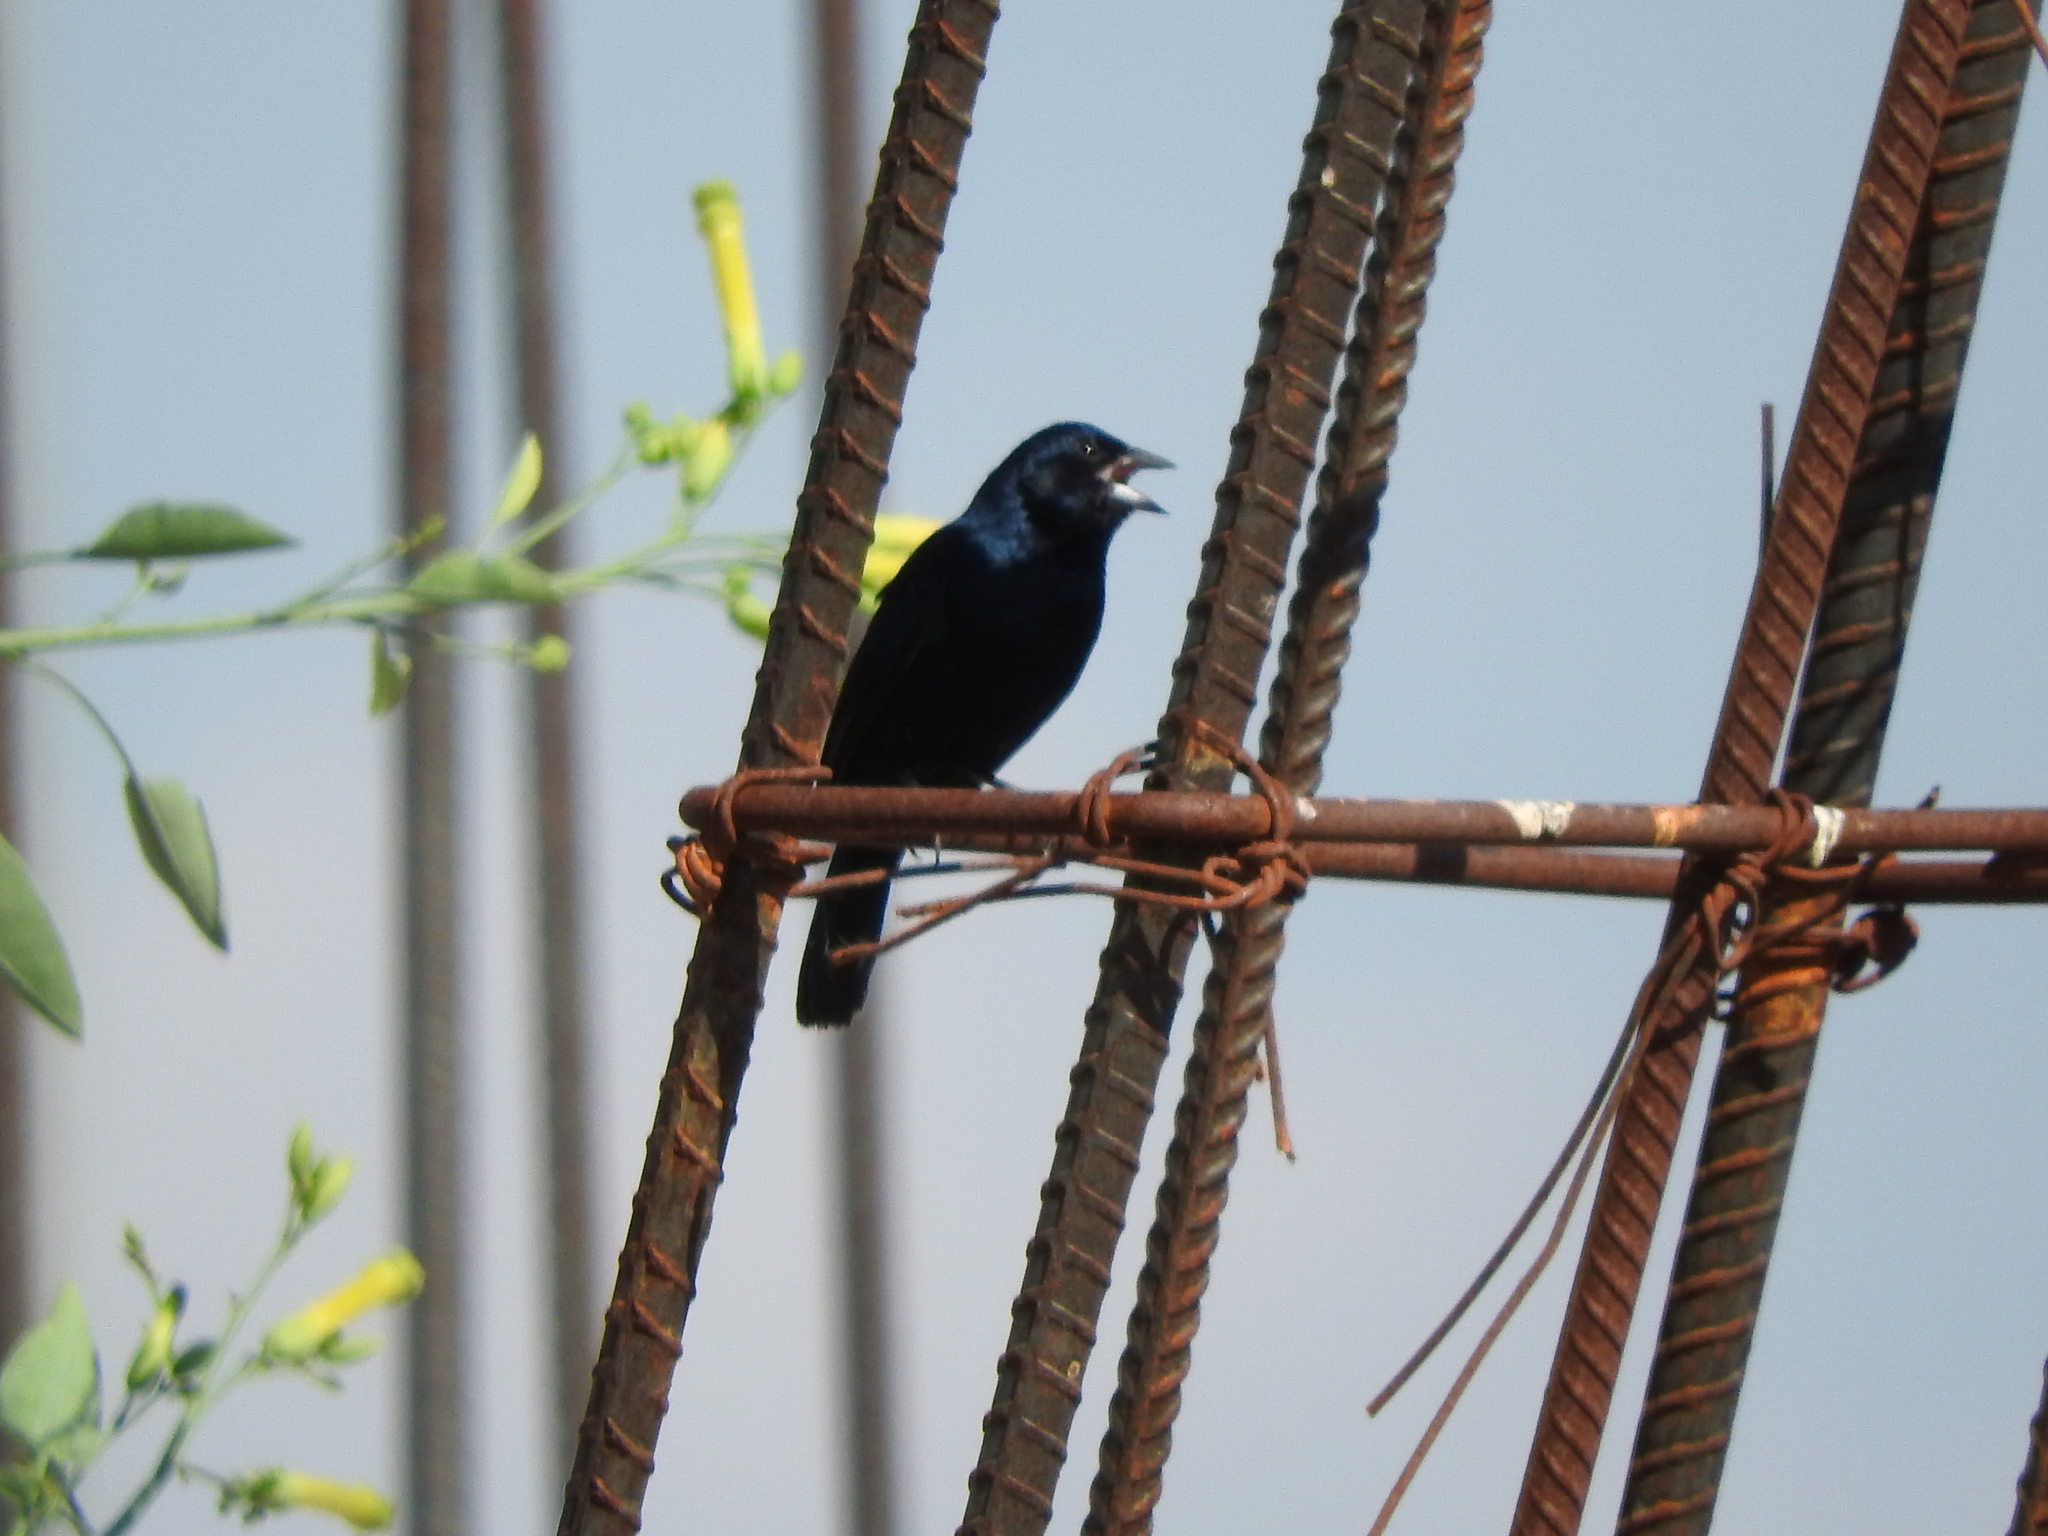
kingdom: Animalia
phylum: Chordata
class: Aves
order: Passeriformes
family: Thraupidae
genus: Volatinia
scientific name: Volatinia jacarina
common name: Blue-black grassquit
